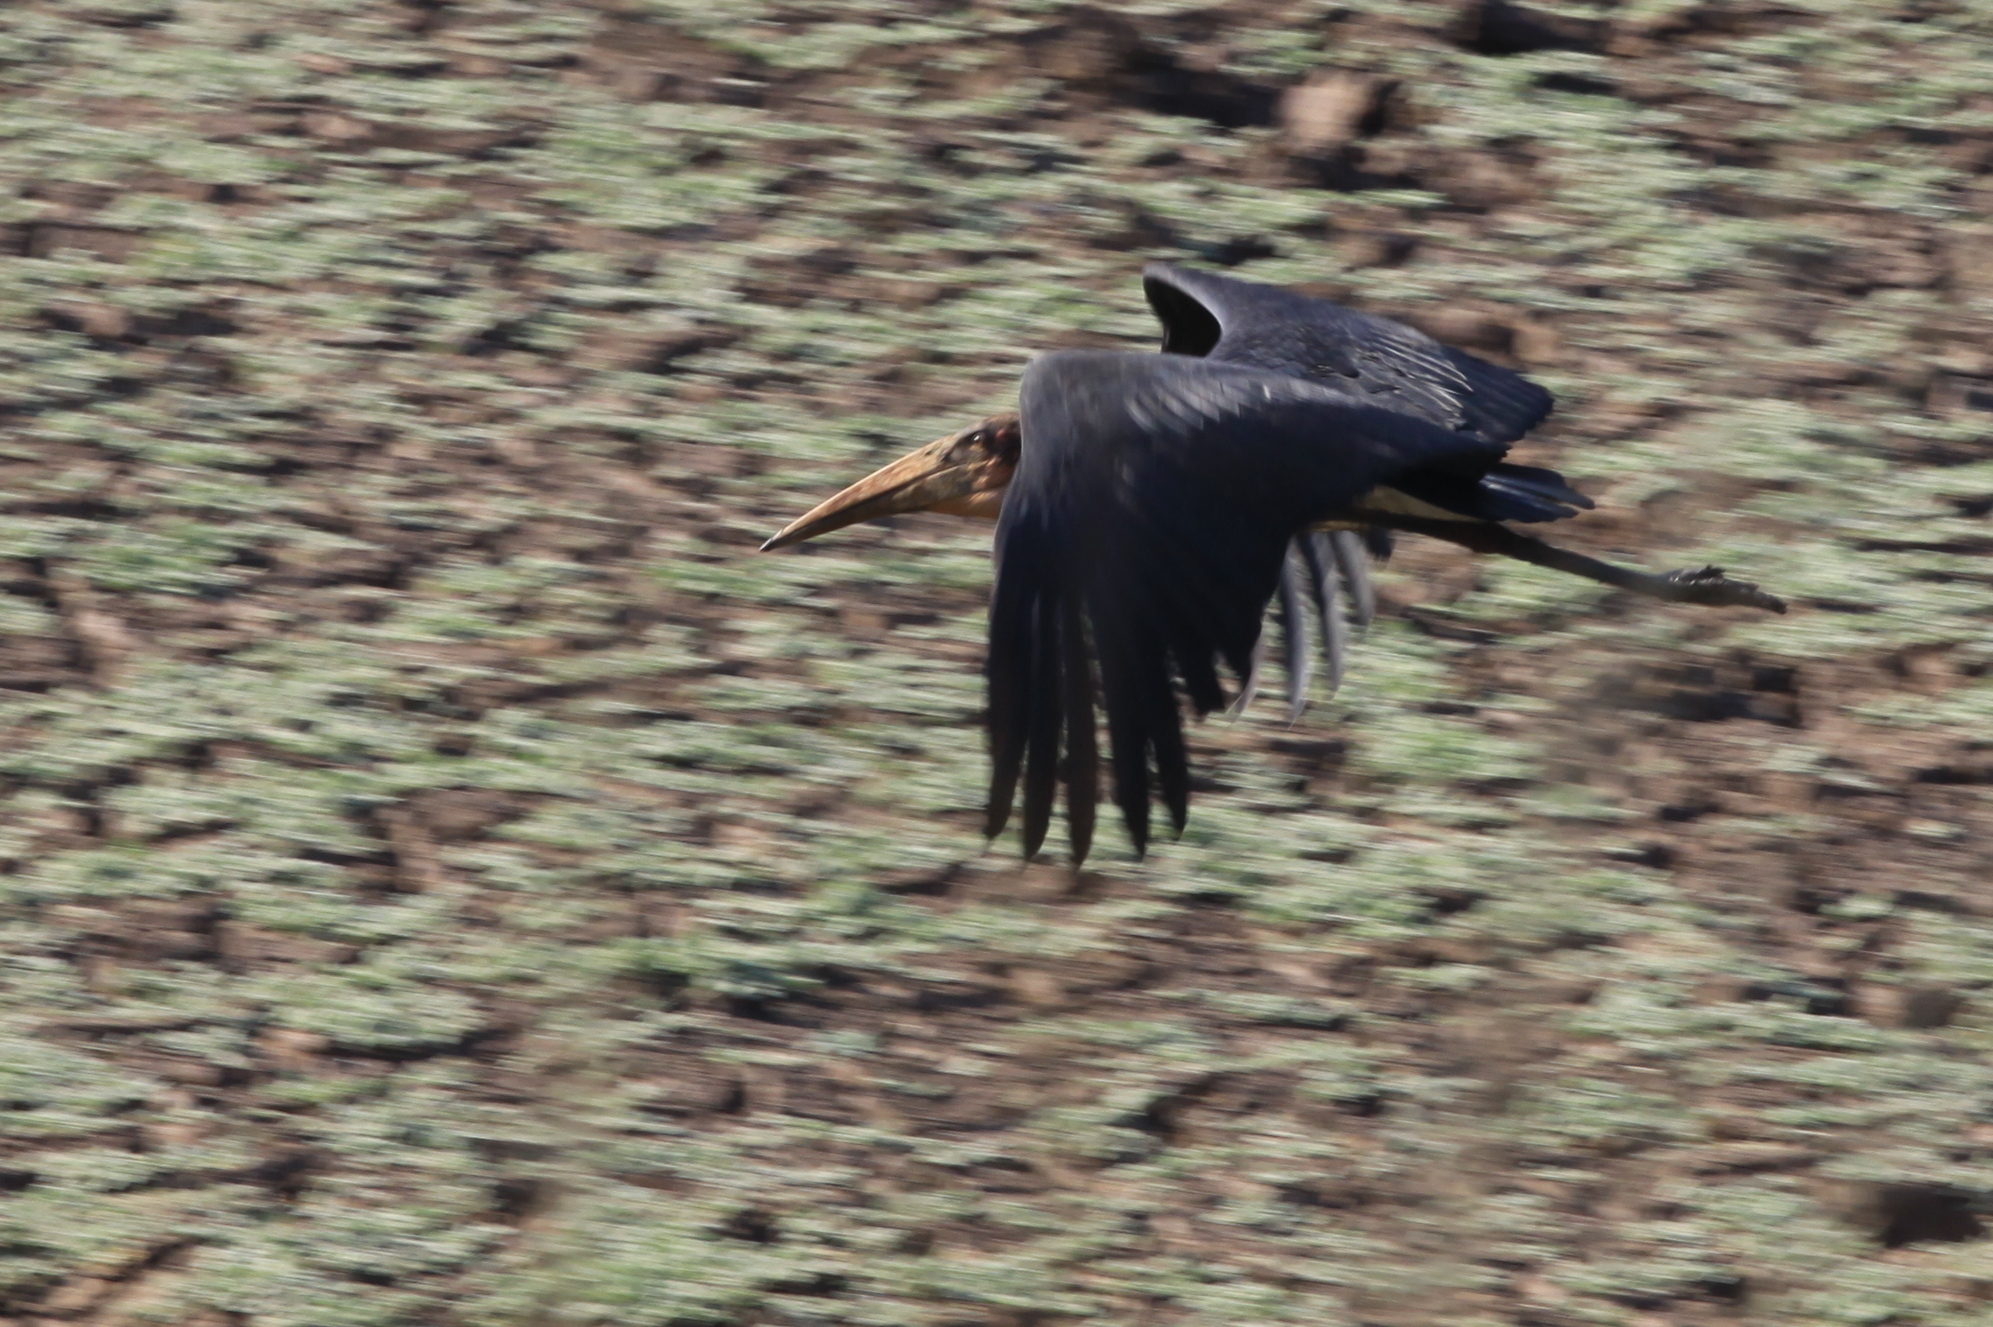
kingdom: Animalia
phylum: Chordata
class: Aves
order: Ciconiiformes
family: Ciconiidae
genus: Leptoptilos
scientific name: Leptoptilos crumenifer
